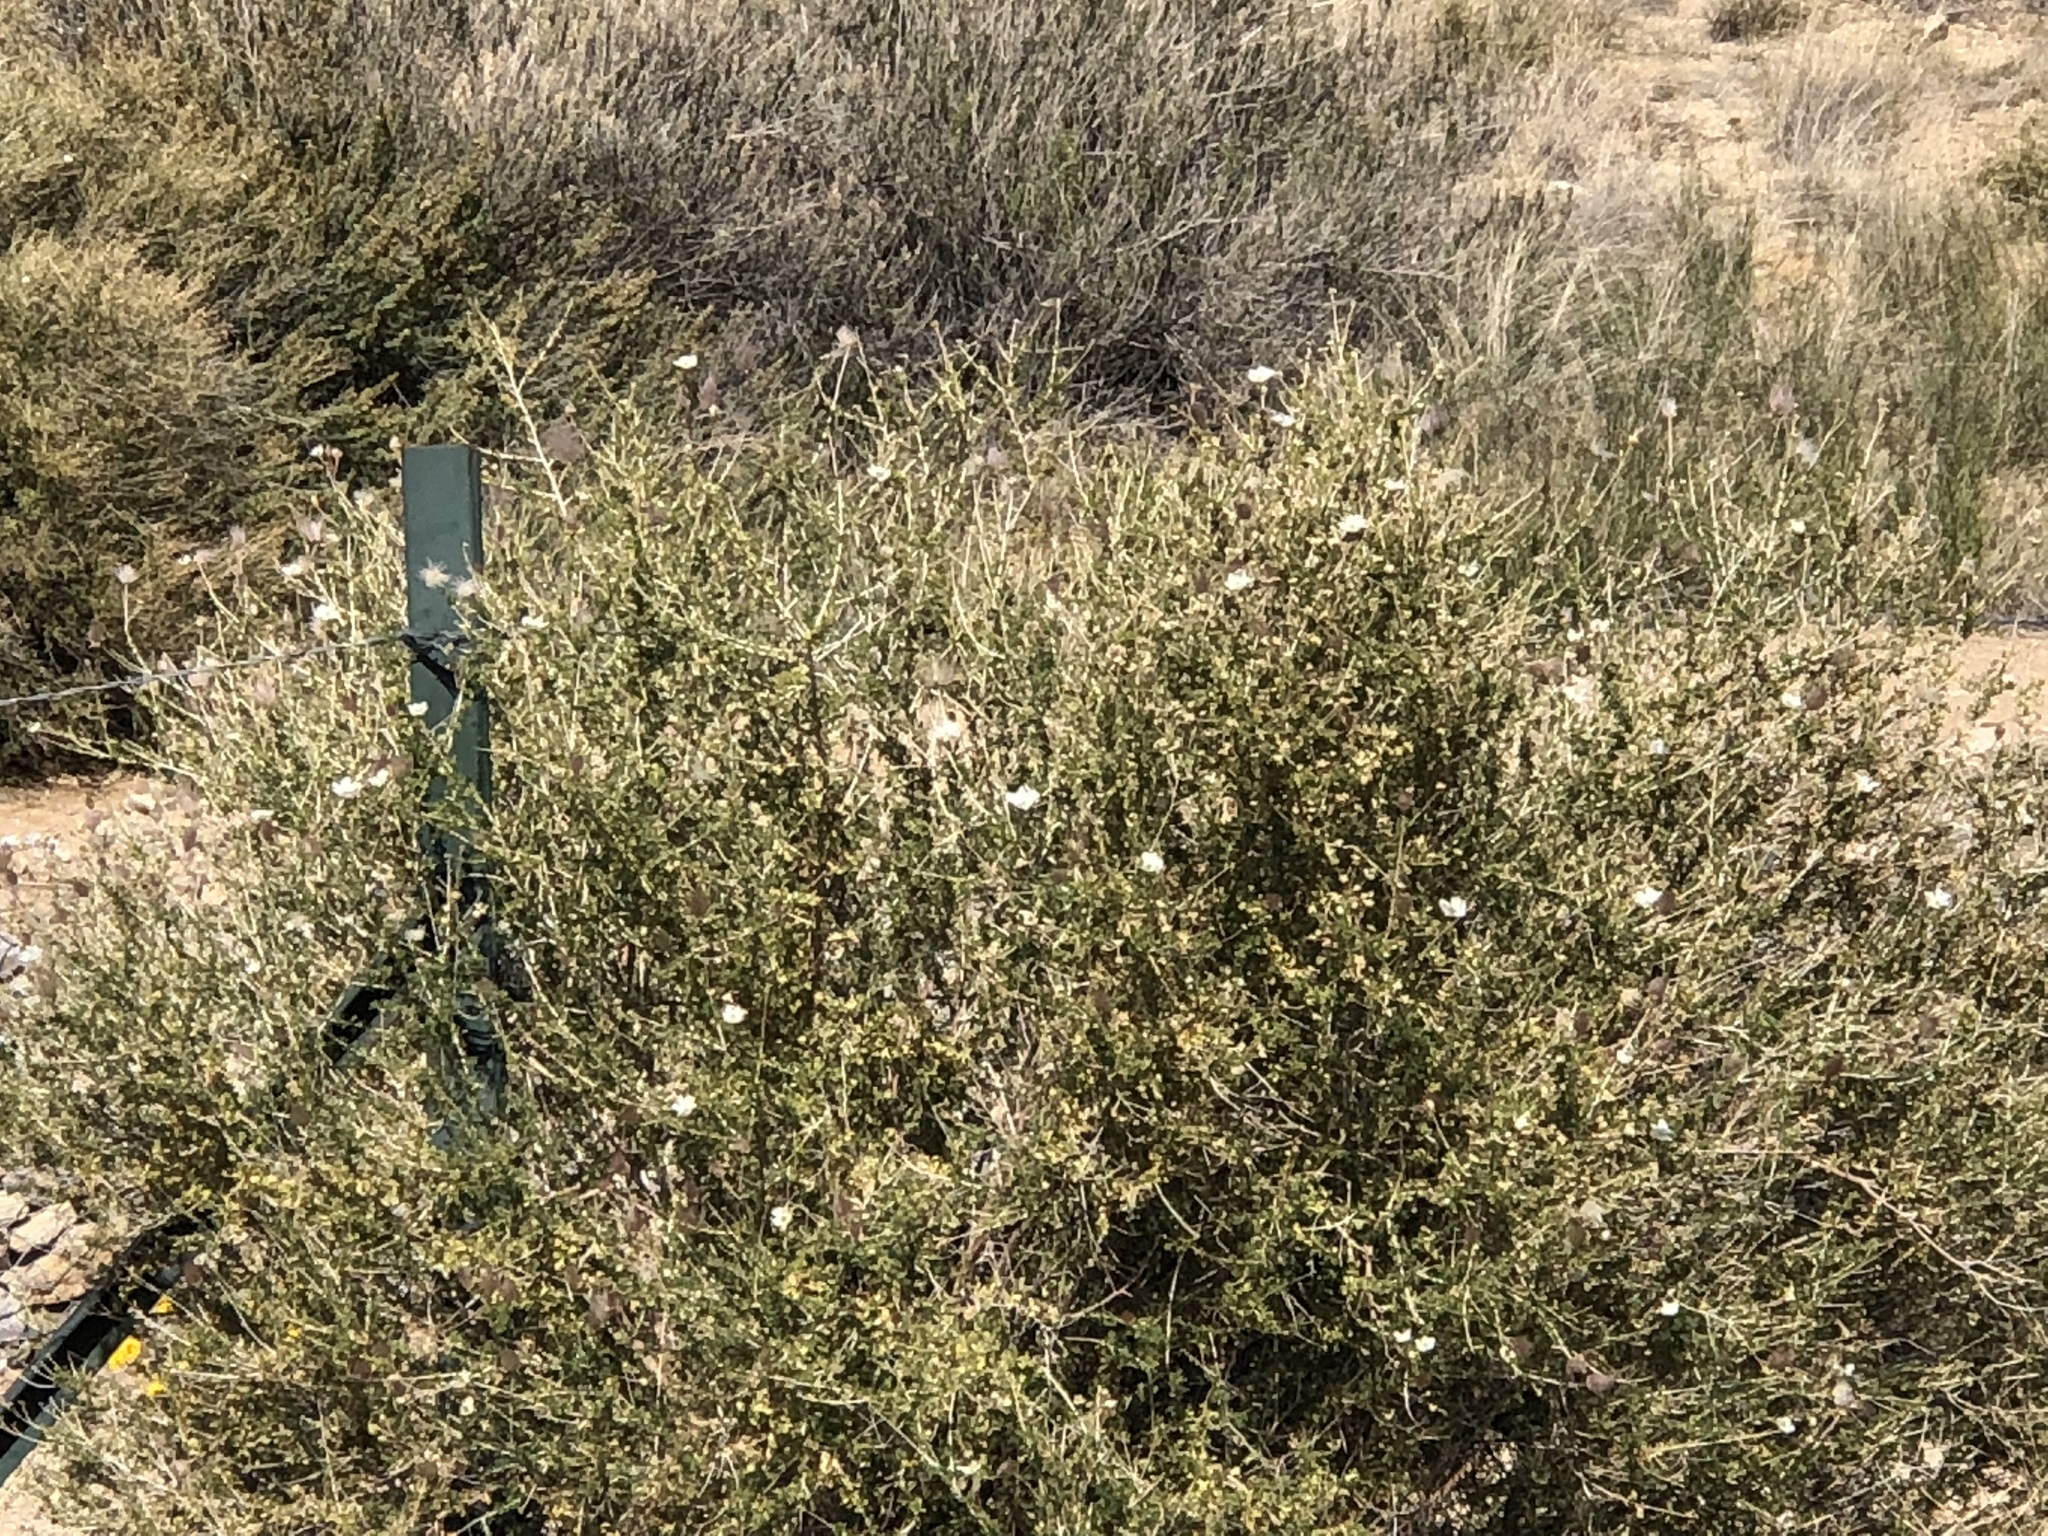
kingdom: Plantae
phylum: Tracheophyta
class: Magnoliopsida
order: Rosales
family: Rosaceae
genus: Fallugia
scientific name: Fallugia paradoxa
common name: Apache-plume
